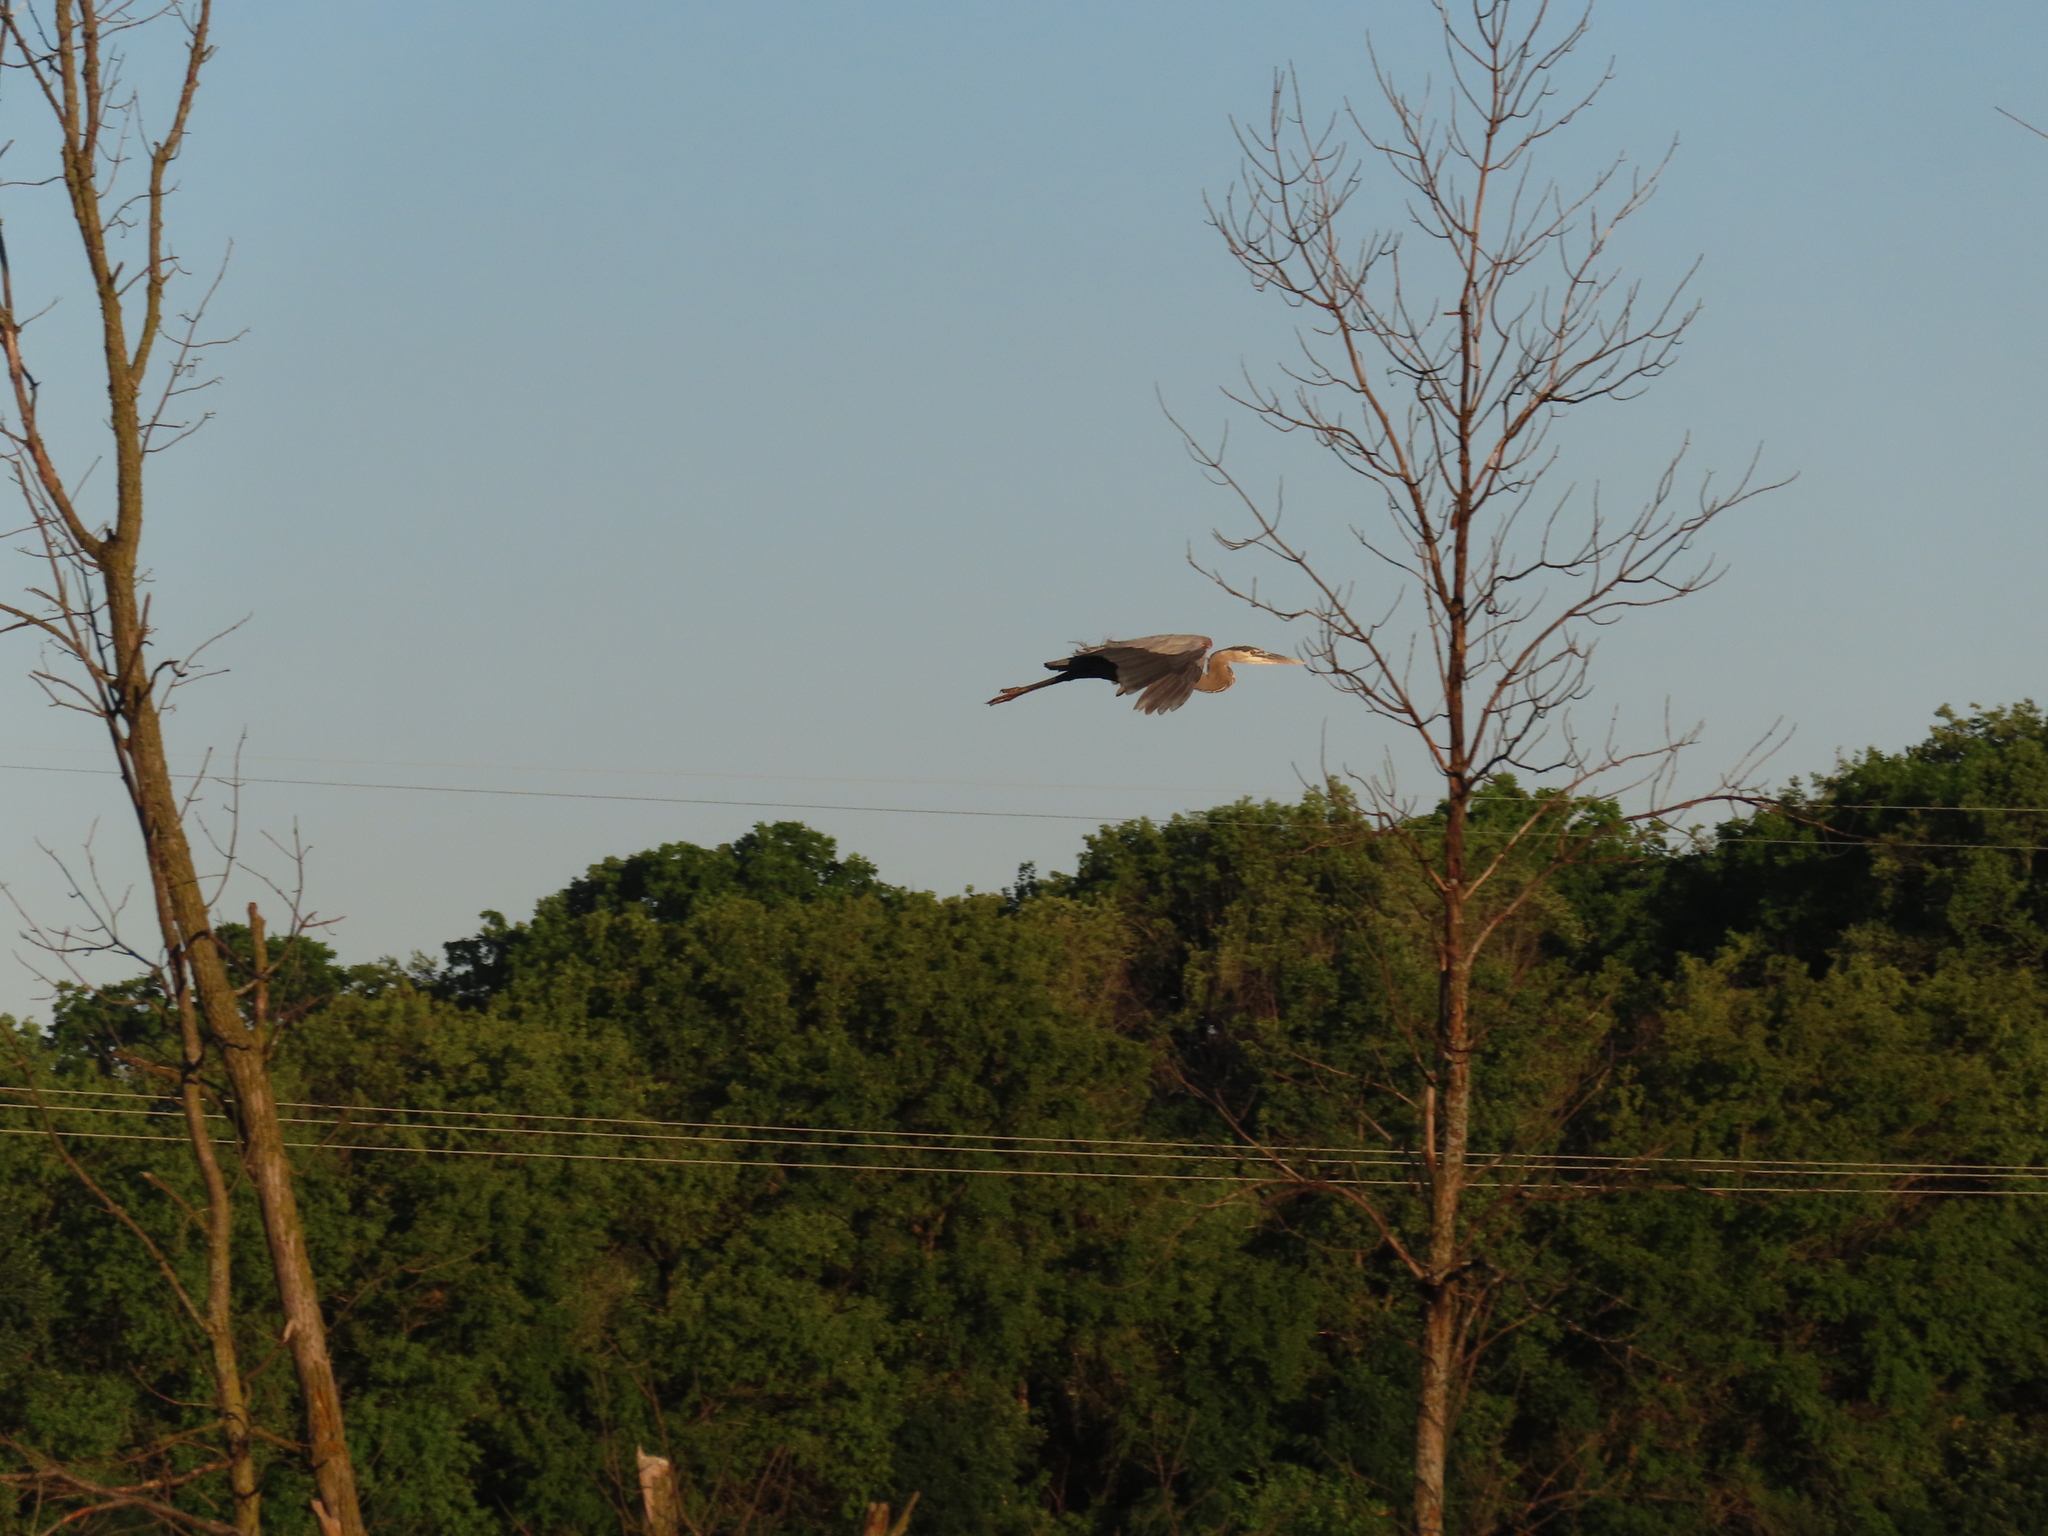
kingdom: Animalia
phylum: Chordata
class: Aves
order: Pelecaniformes
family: Ardeidae
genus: Ardea
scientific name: Ardea herodias
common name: Great blue heron
